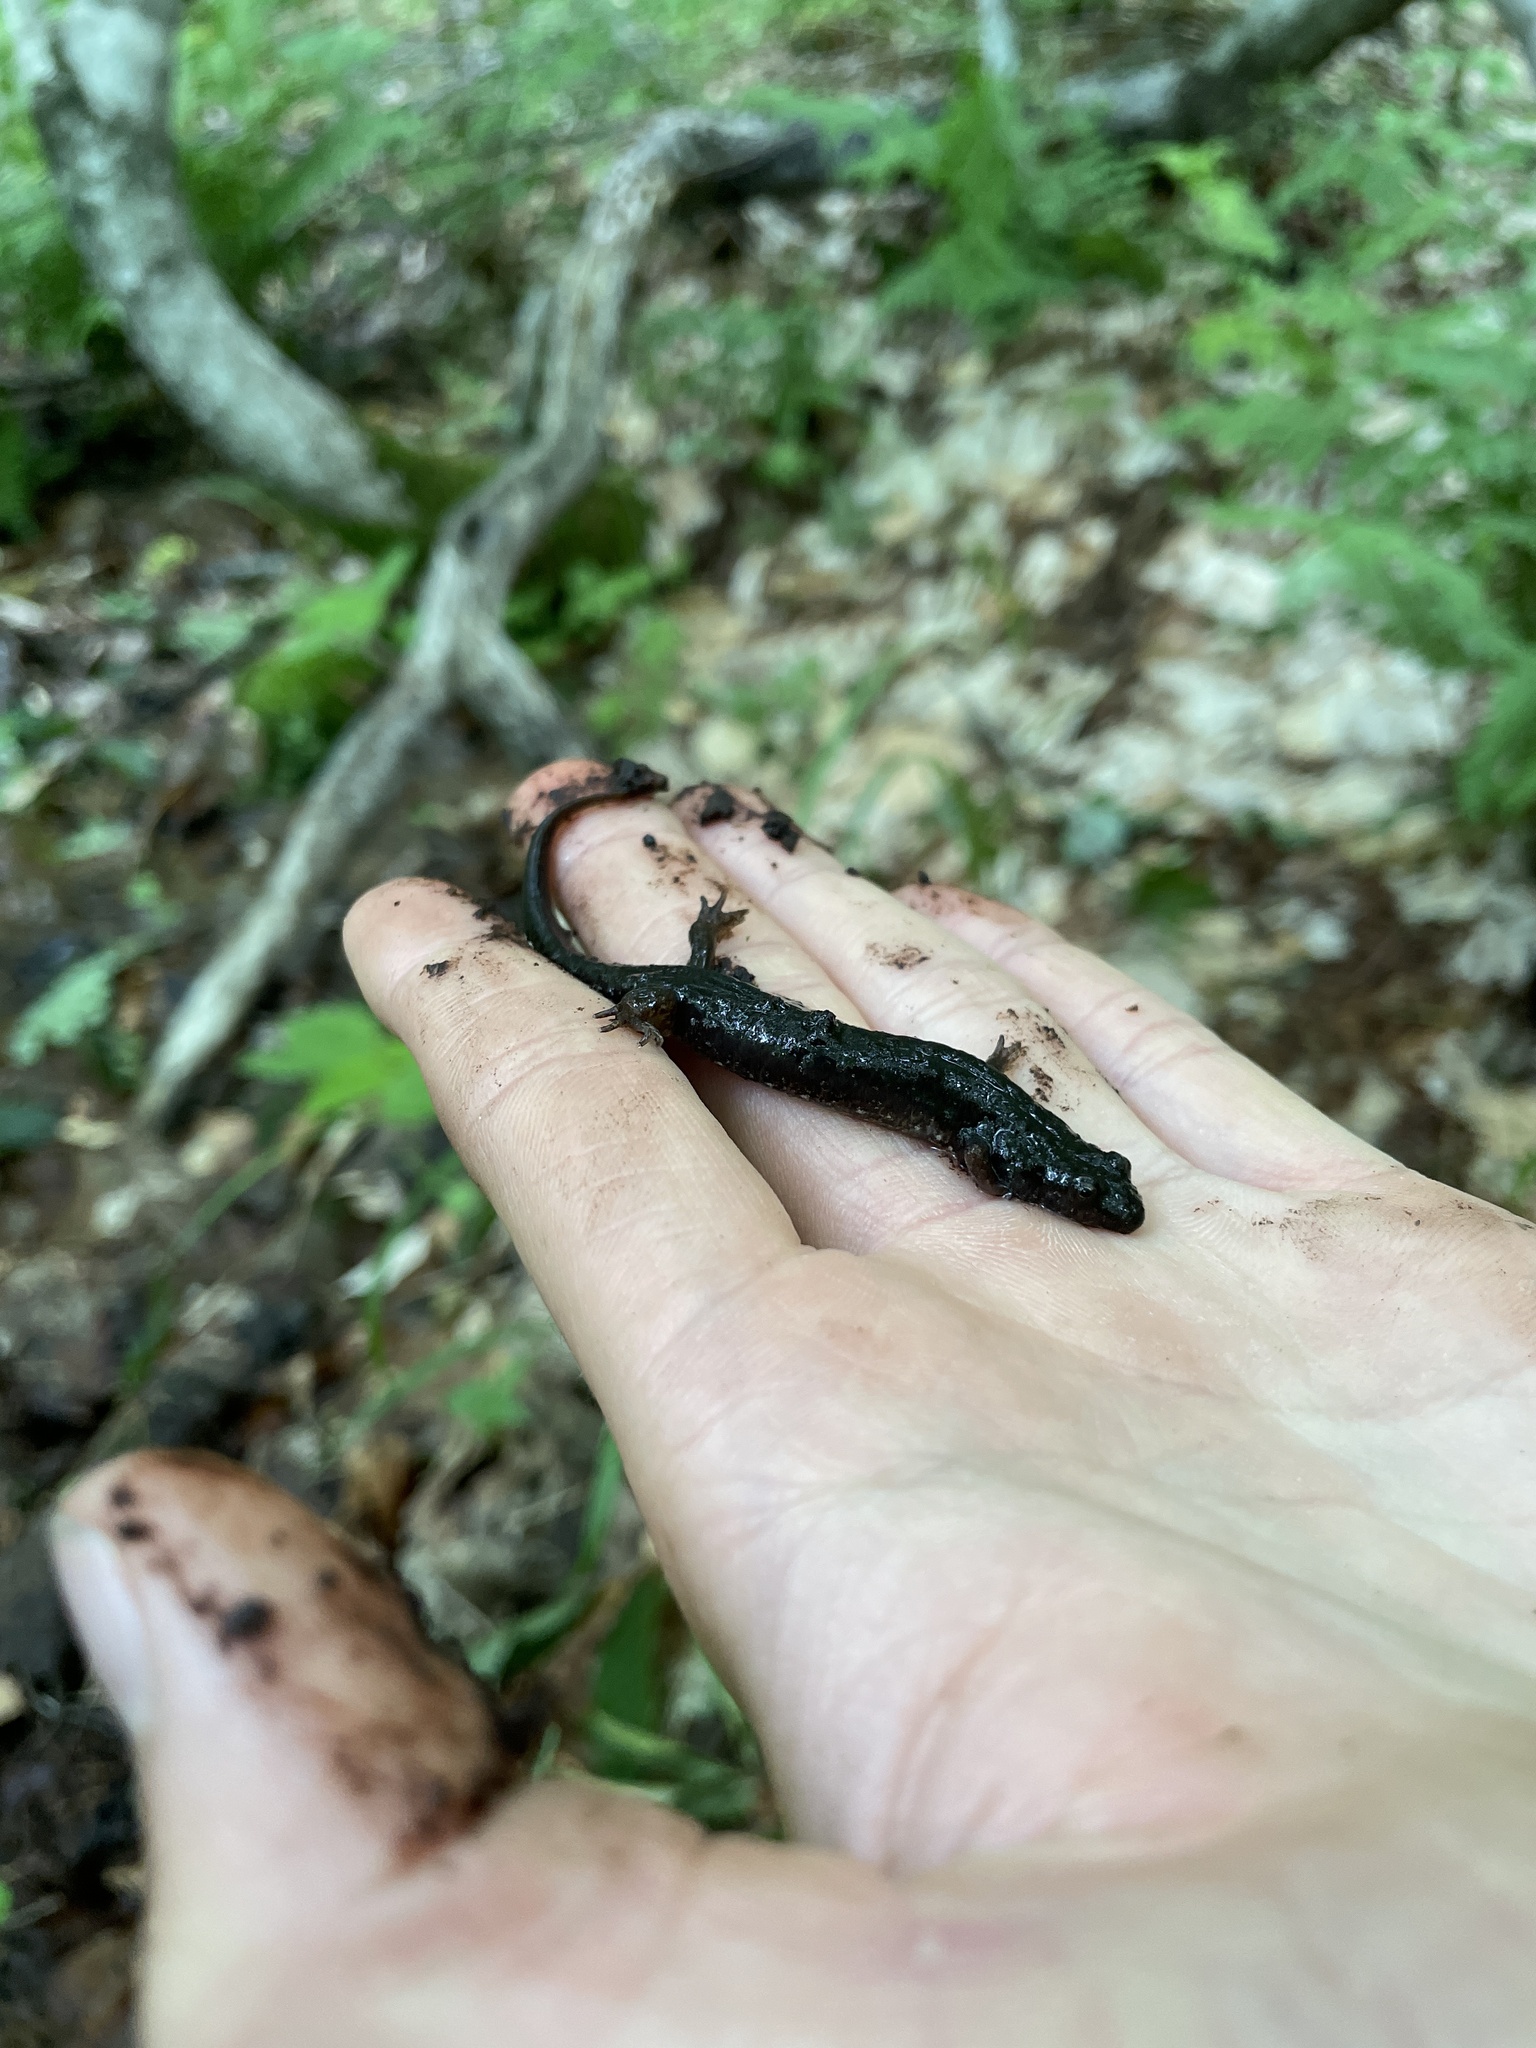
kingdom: Animalia
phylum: Chordata
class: Amphibia
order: Caudata
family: Plethodontidae
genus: Desmognathus
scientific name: Desmognathus fuscus
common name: Northern dusky salamander
